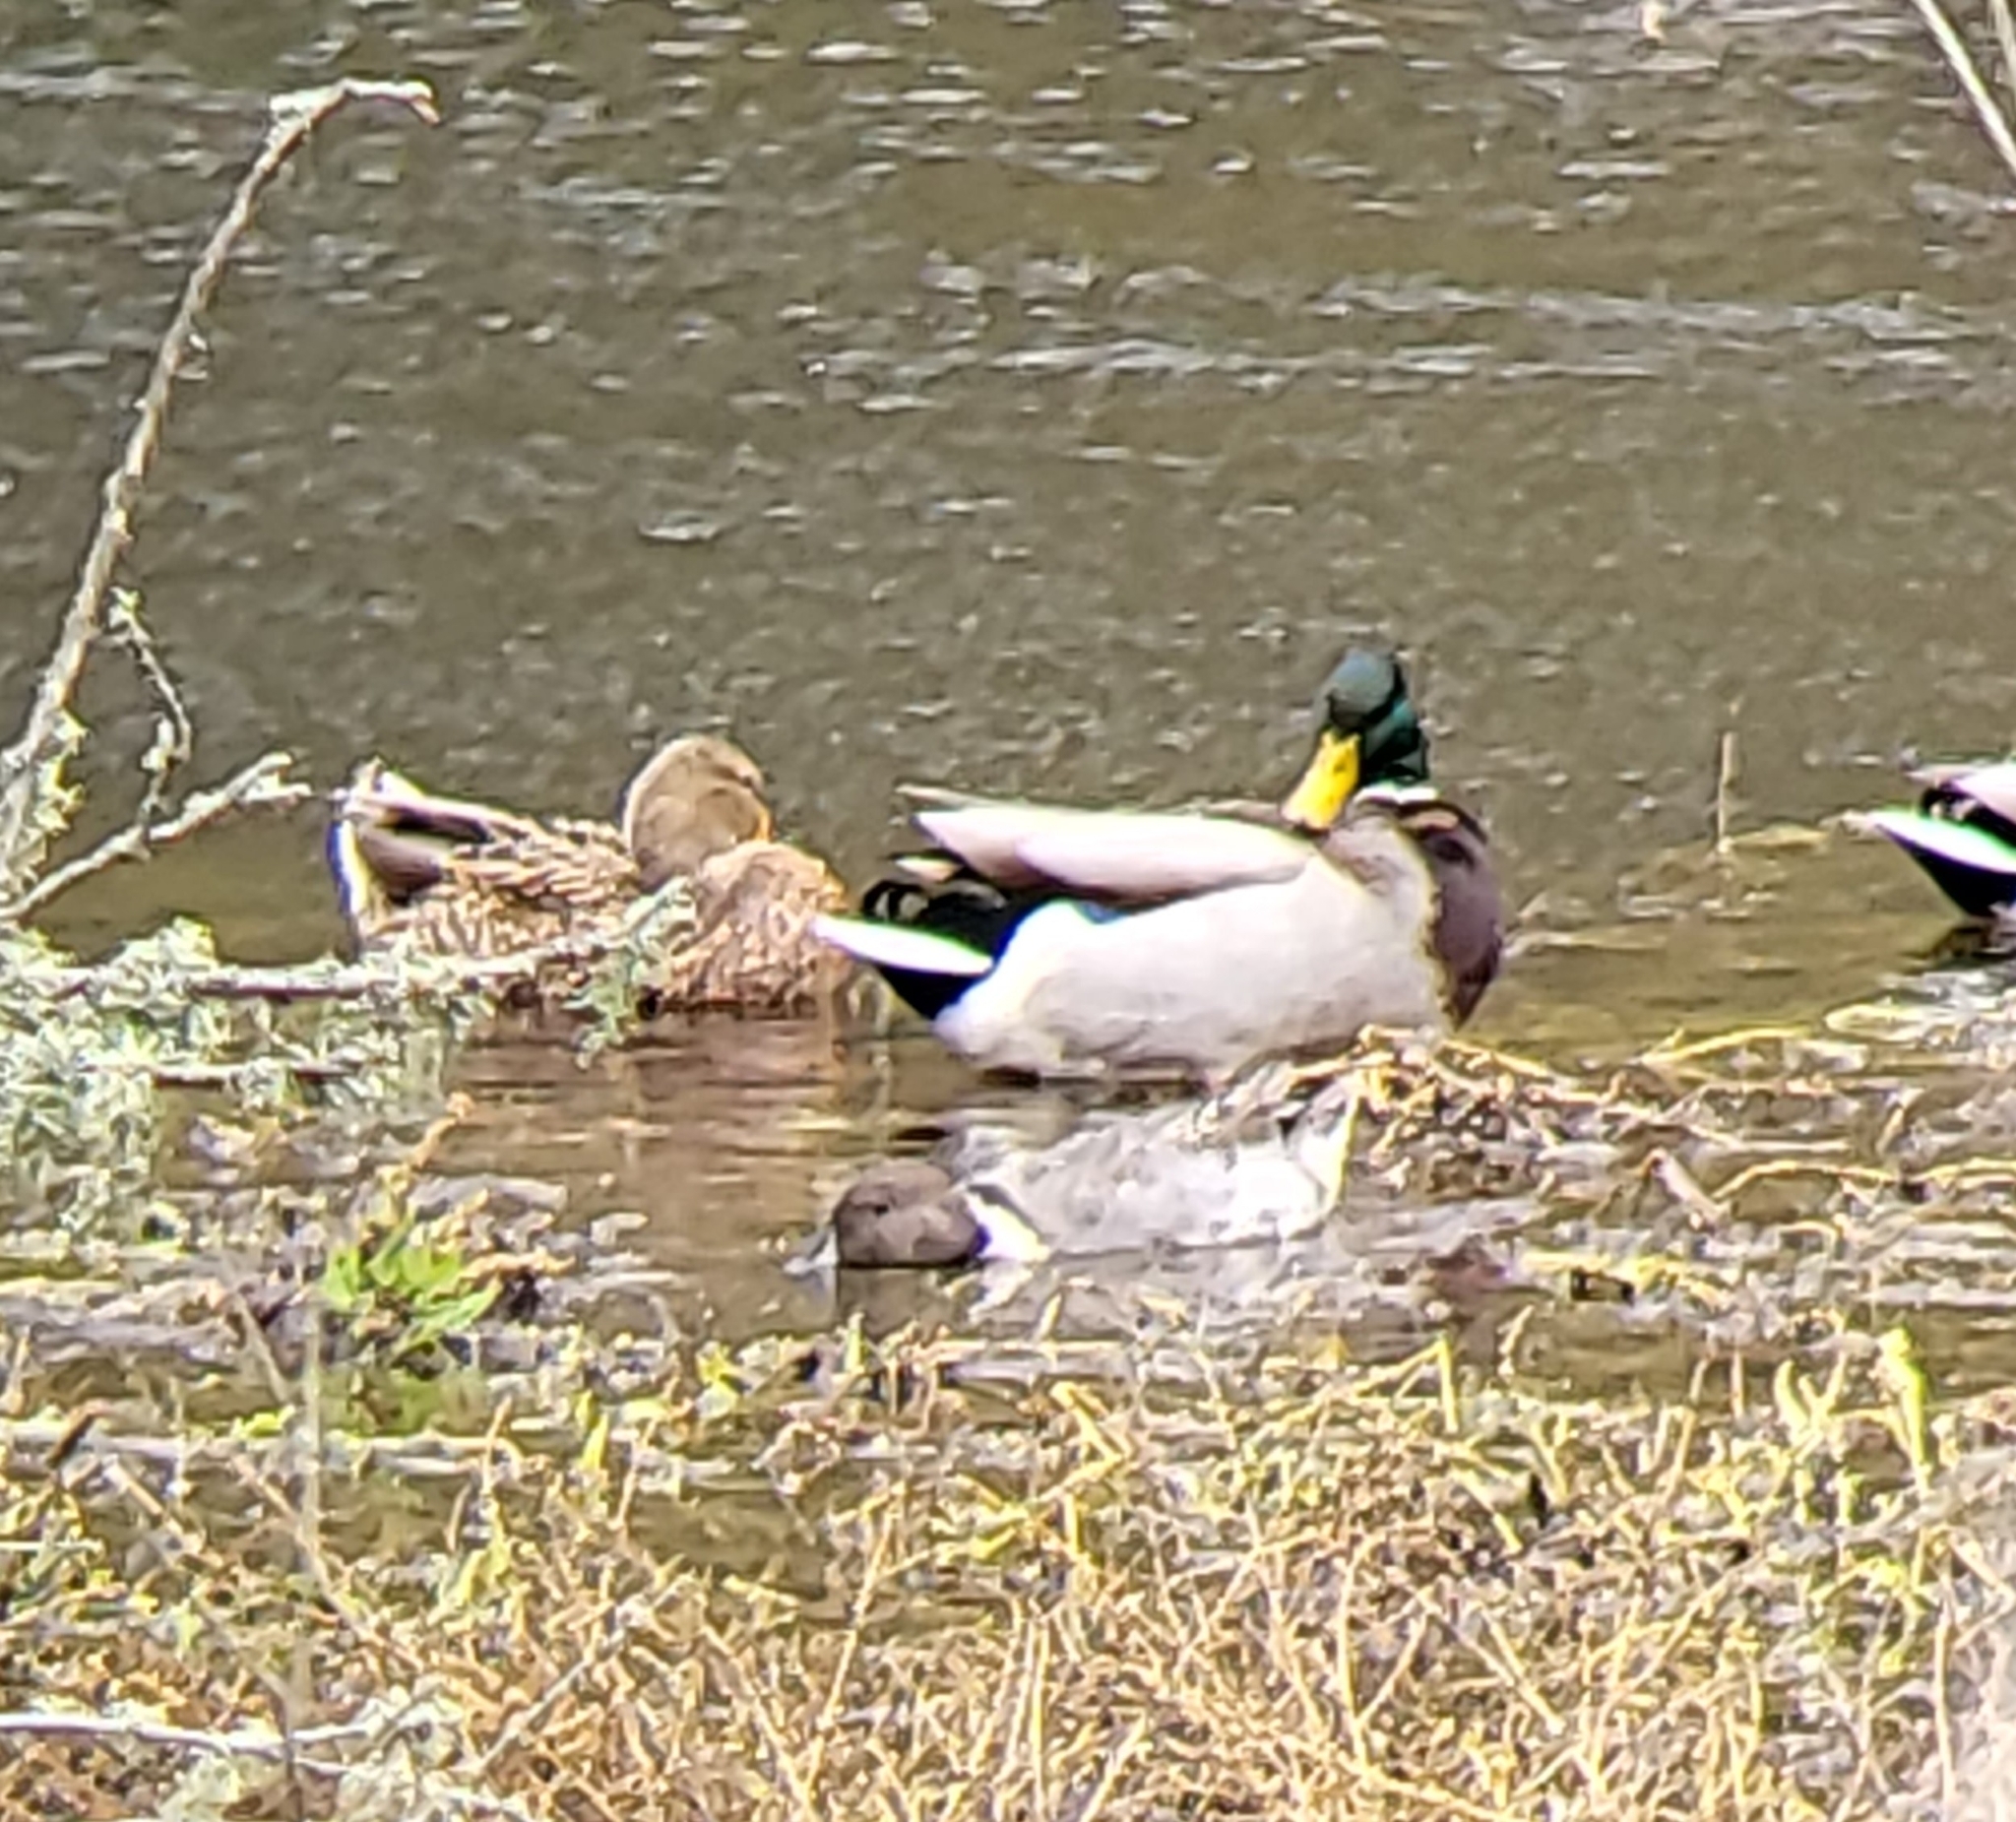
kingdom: Animalia
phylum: Chordata
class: Aves
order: Anseriformes
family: Anatidae
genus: Anas
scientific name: Anas acuta
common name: Northern pintail
